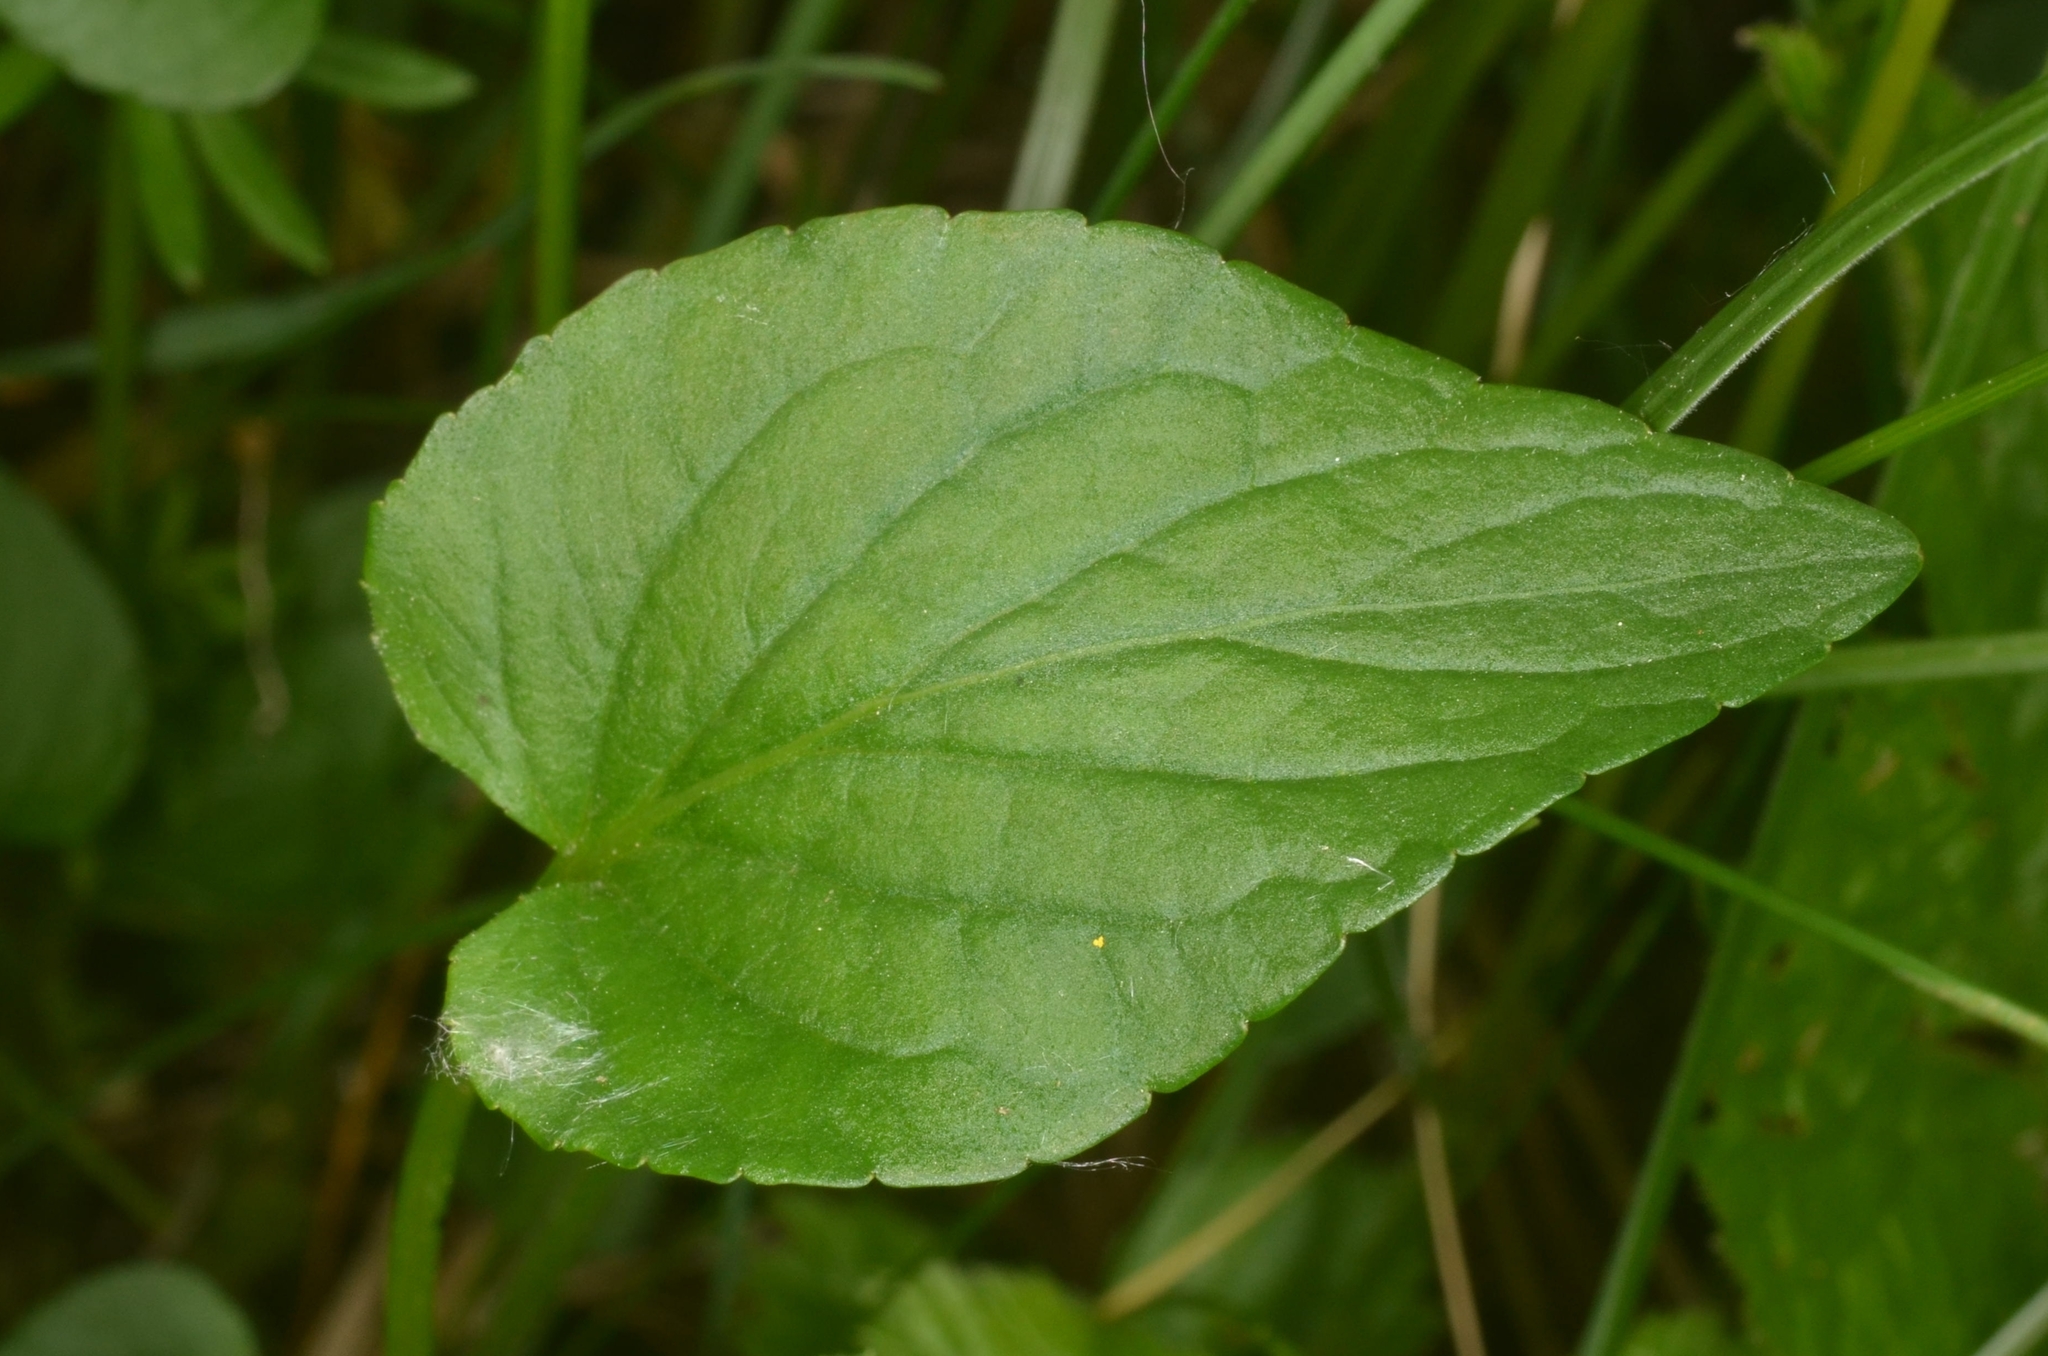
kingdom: Plantae
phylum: Tracheophyta
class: Magnoliopsida
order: Malpighiales
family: Violaceae
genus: Viola
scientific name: Viola canina
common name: Heath dog-violet
